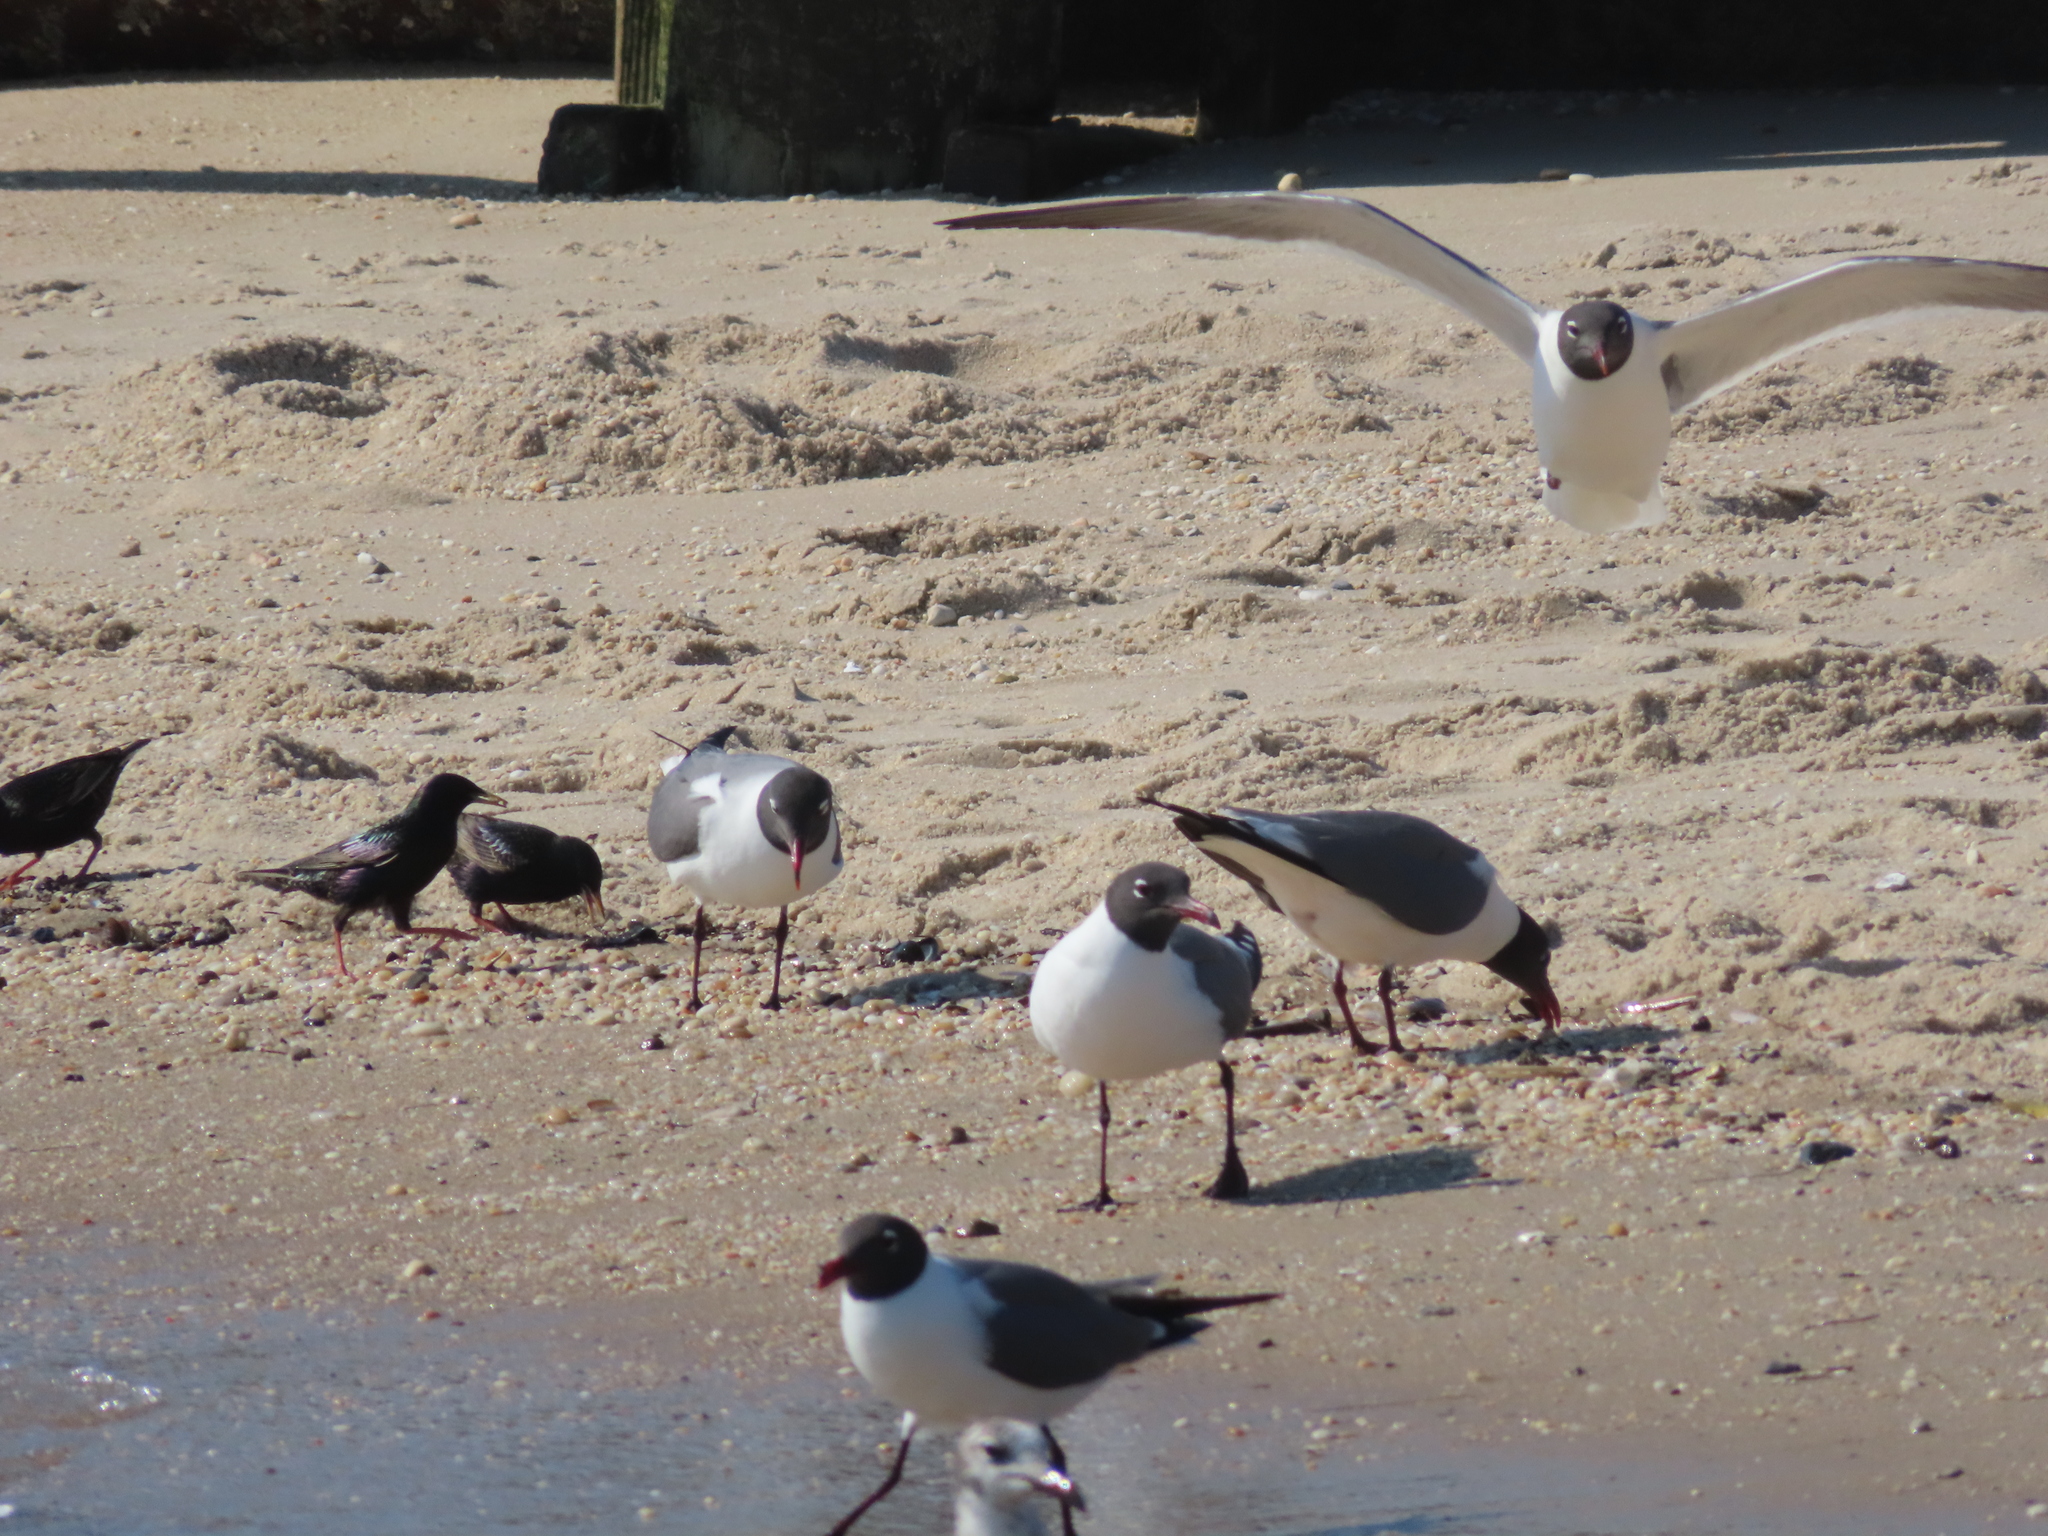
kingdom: Animalia
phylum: Chordata
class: Aves
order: Passeriformes
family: Sturnidae
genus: Sturnus
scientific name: Sturnus vulgaris
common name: Common starling
